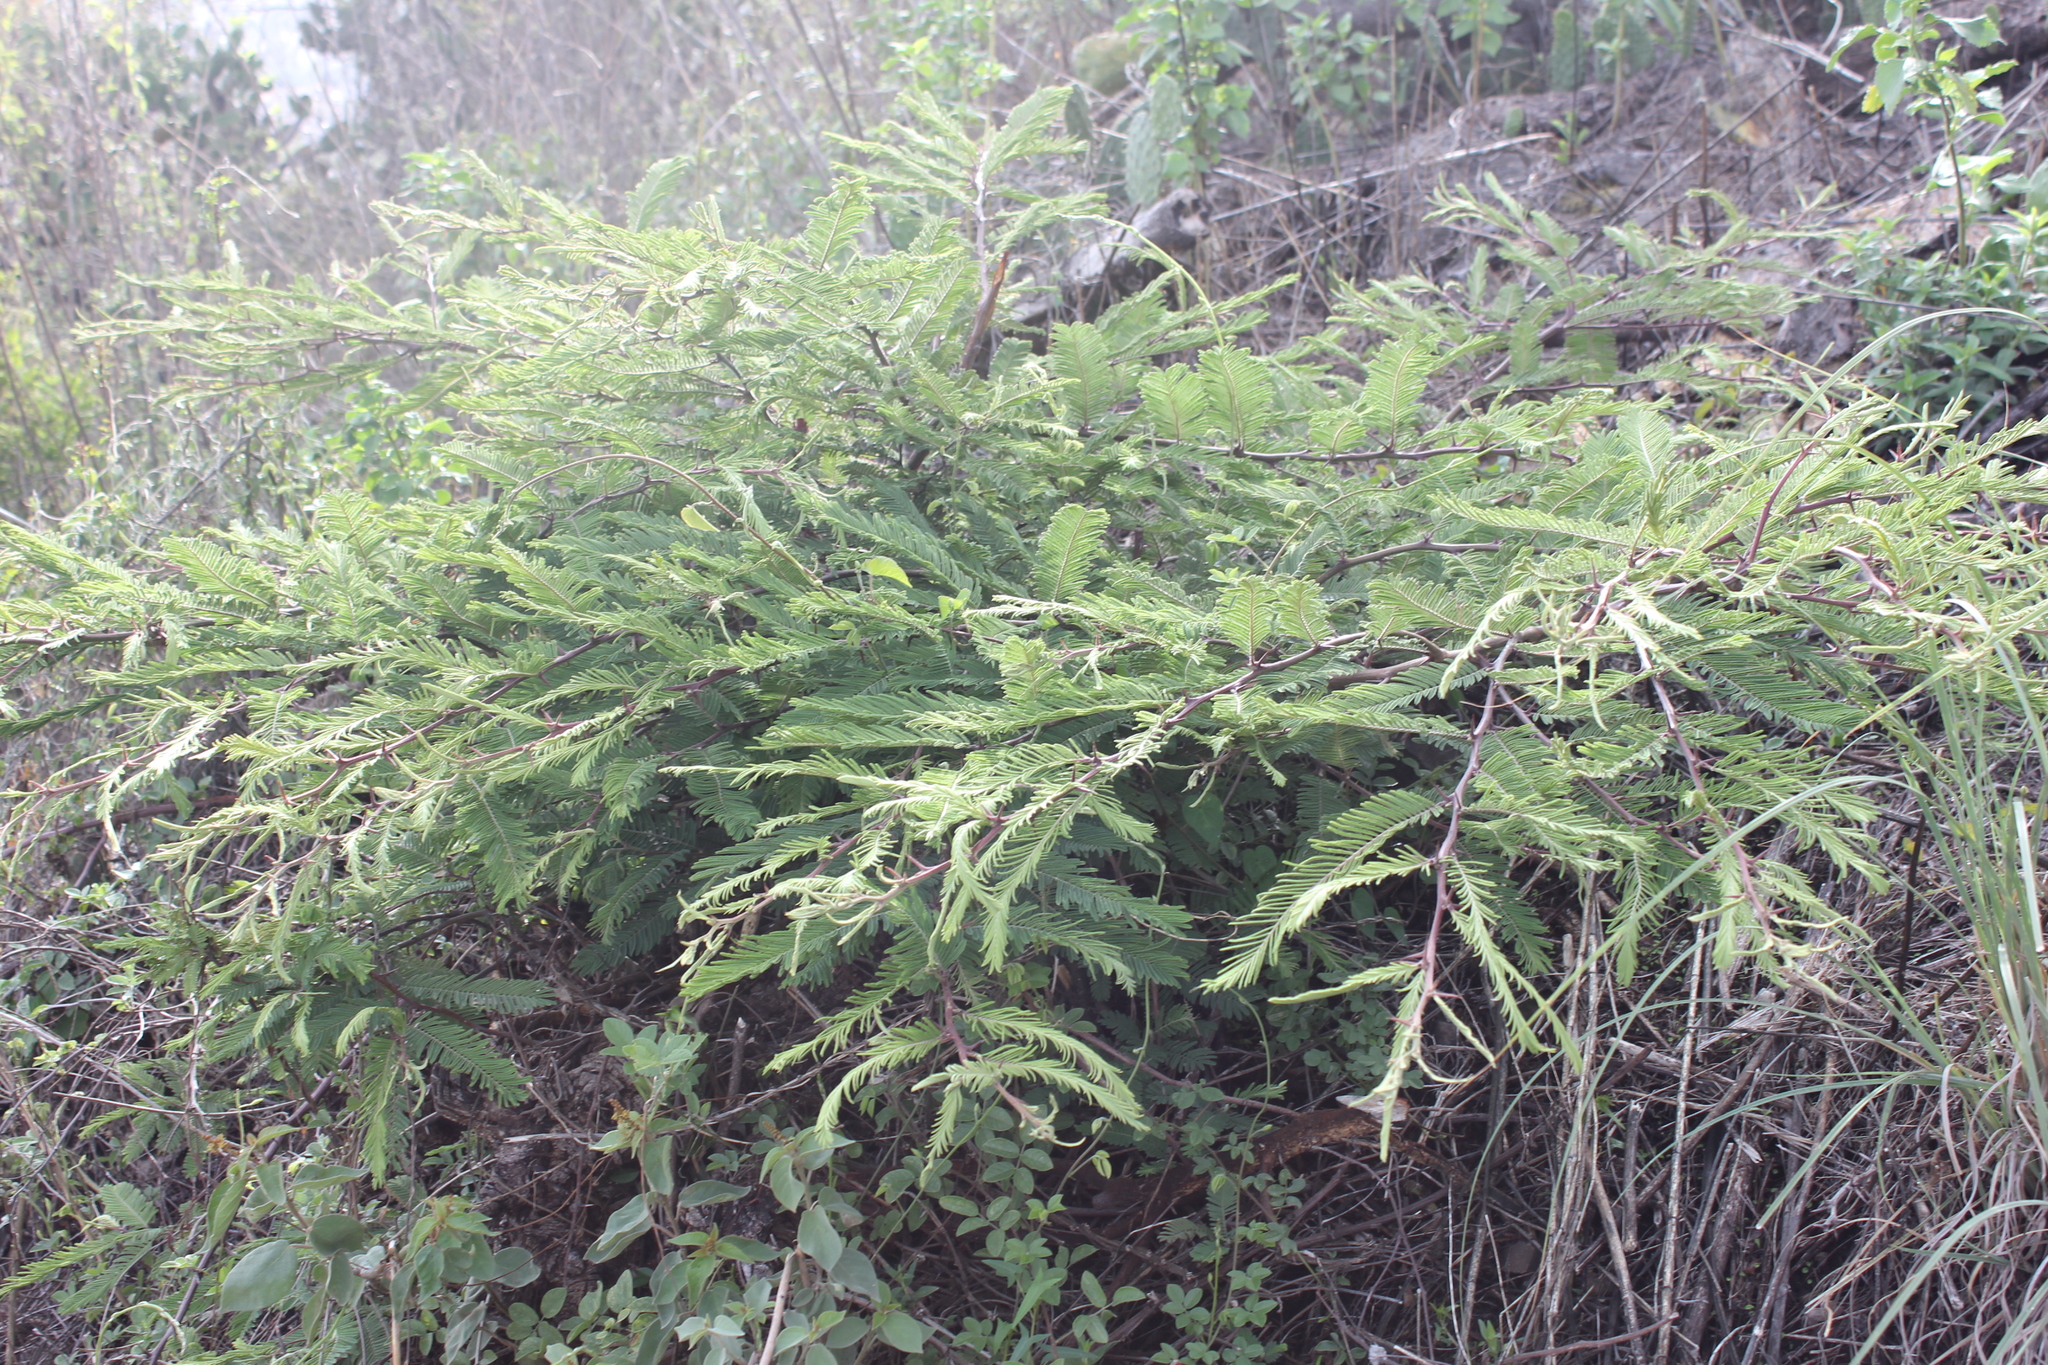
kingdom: Plantae
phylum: Tracheophyta
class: Magnoliopsida
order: Fabales
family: Fabaceae
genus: Vachellia
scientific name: Vachellia pennatula
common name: Fern-leaf acacia
